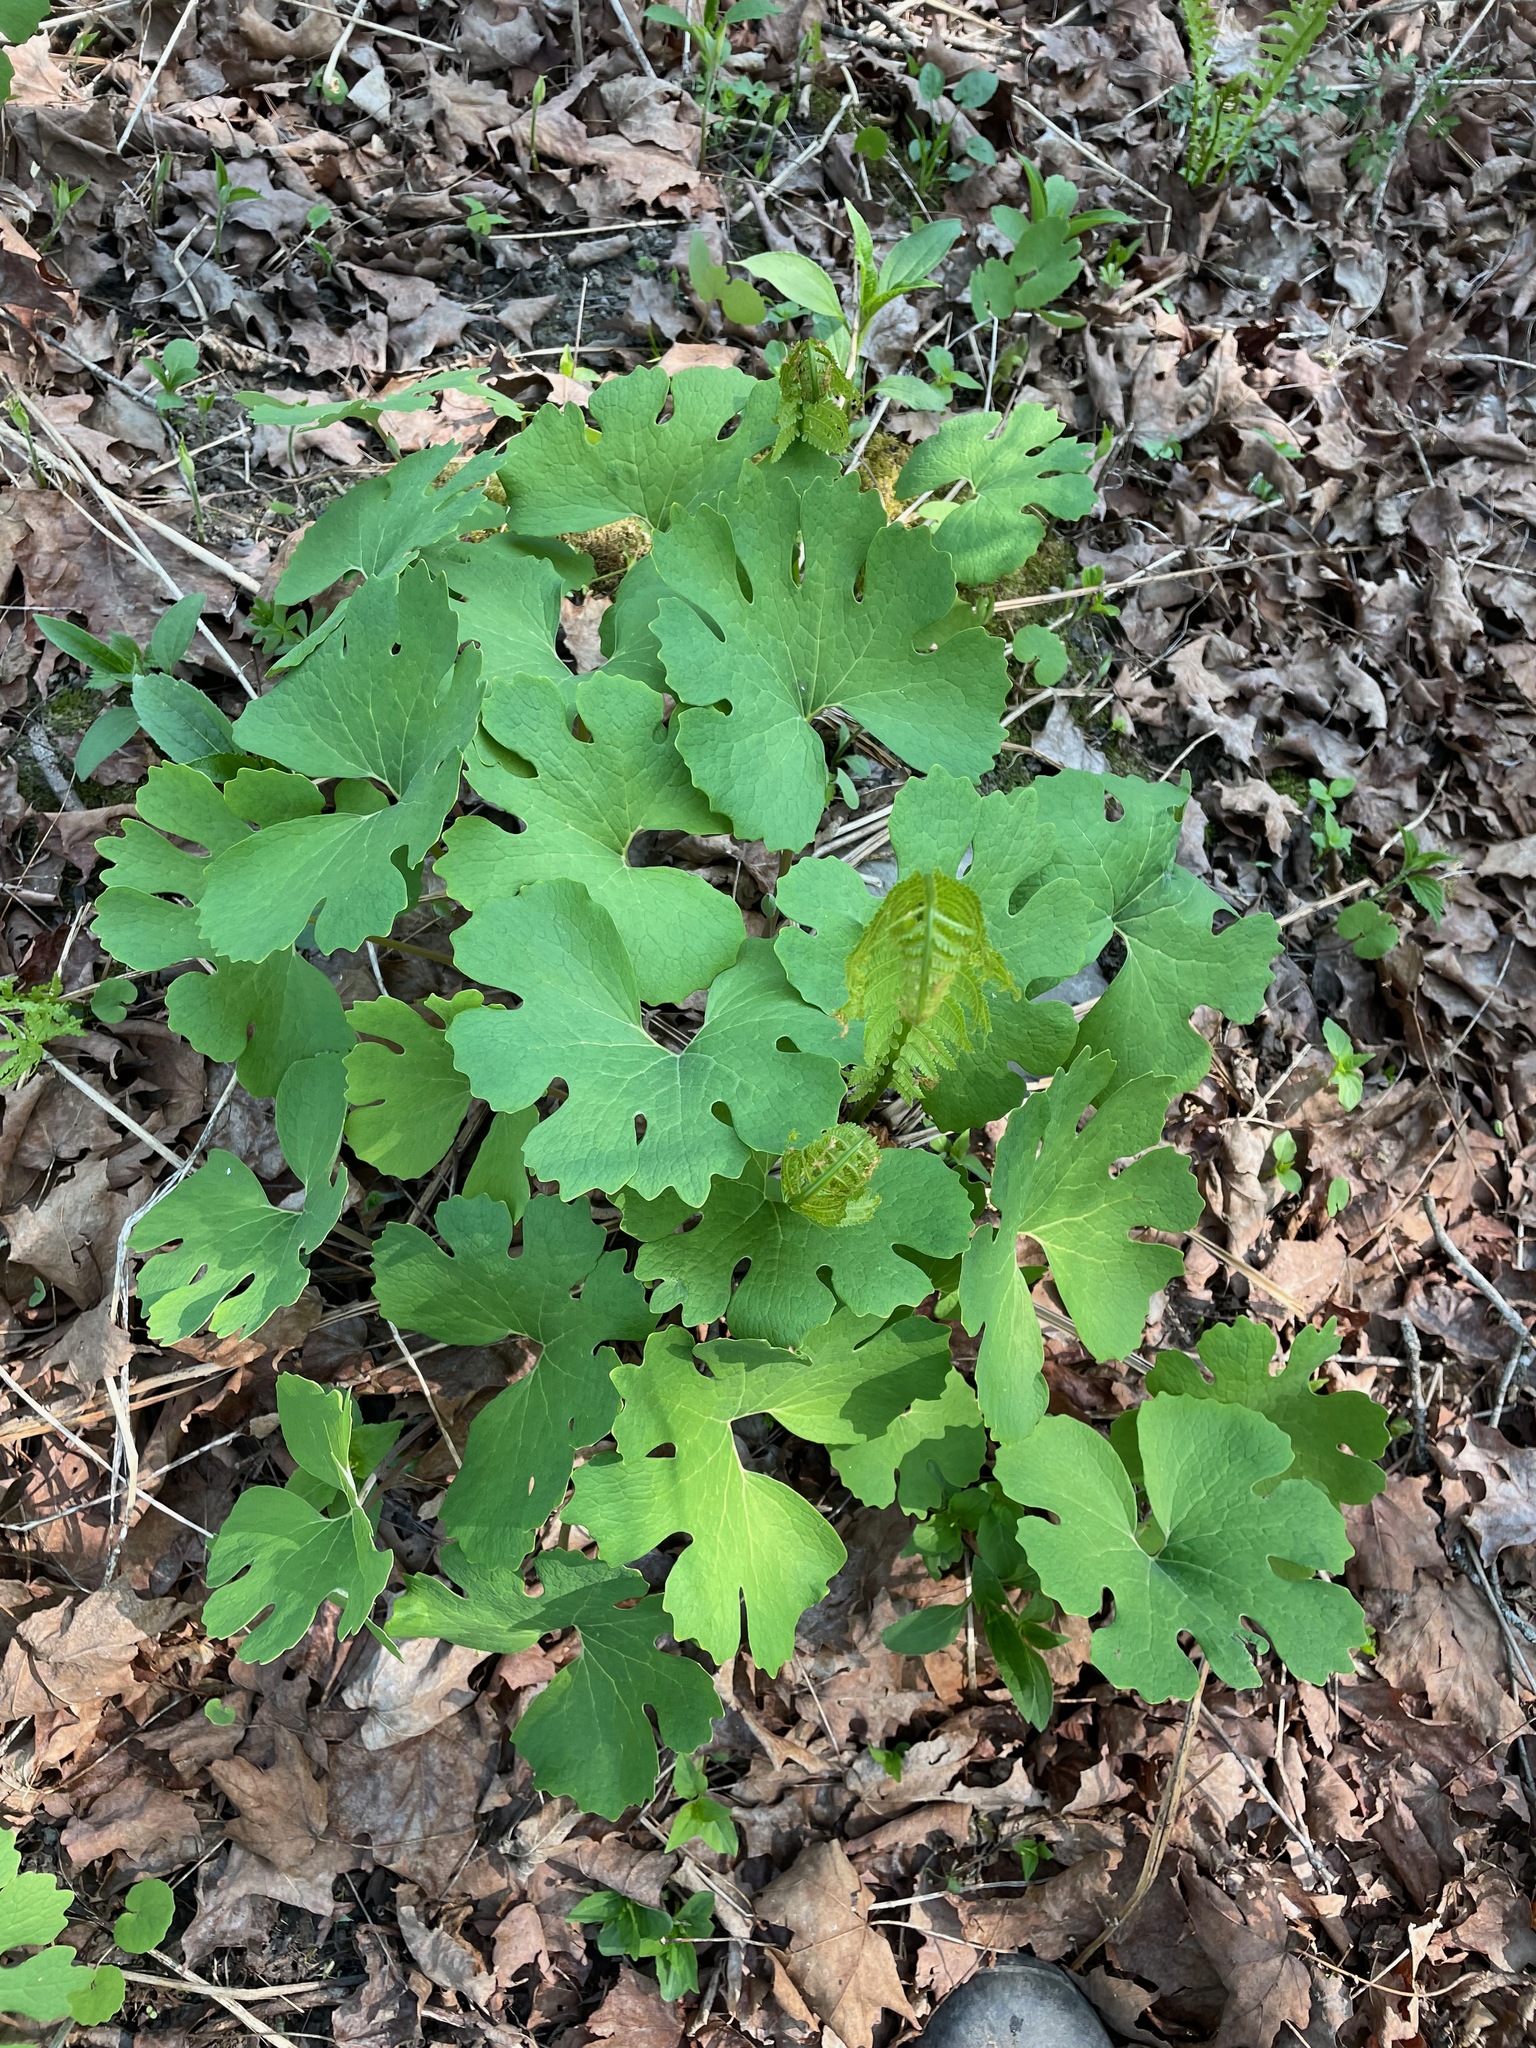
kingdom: Plantae
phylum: Tracheophyta
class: Magnoliopsida
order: Ranunculales
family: Papaveraceae
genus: Sanguinaria
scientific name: Sanguinaria canadensis
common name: Bloodroot
